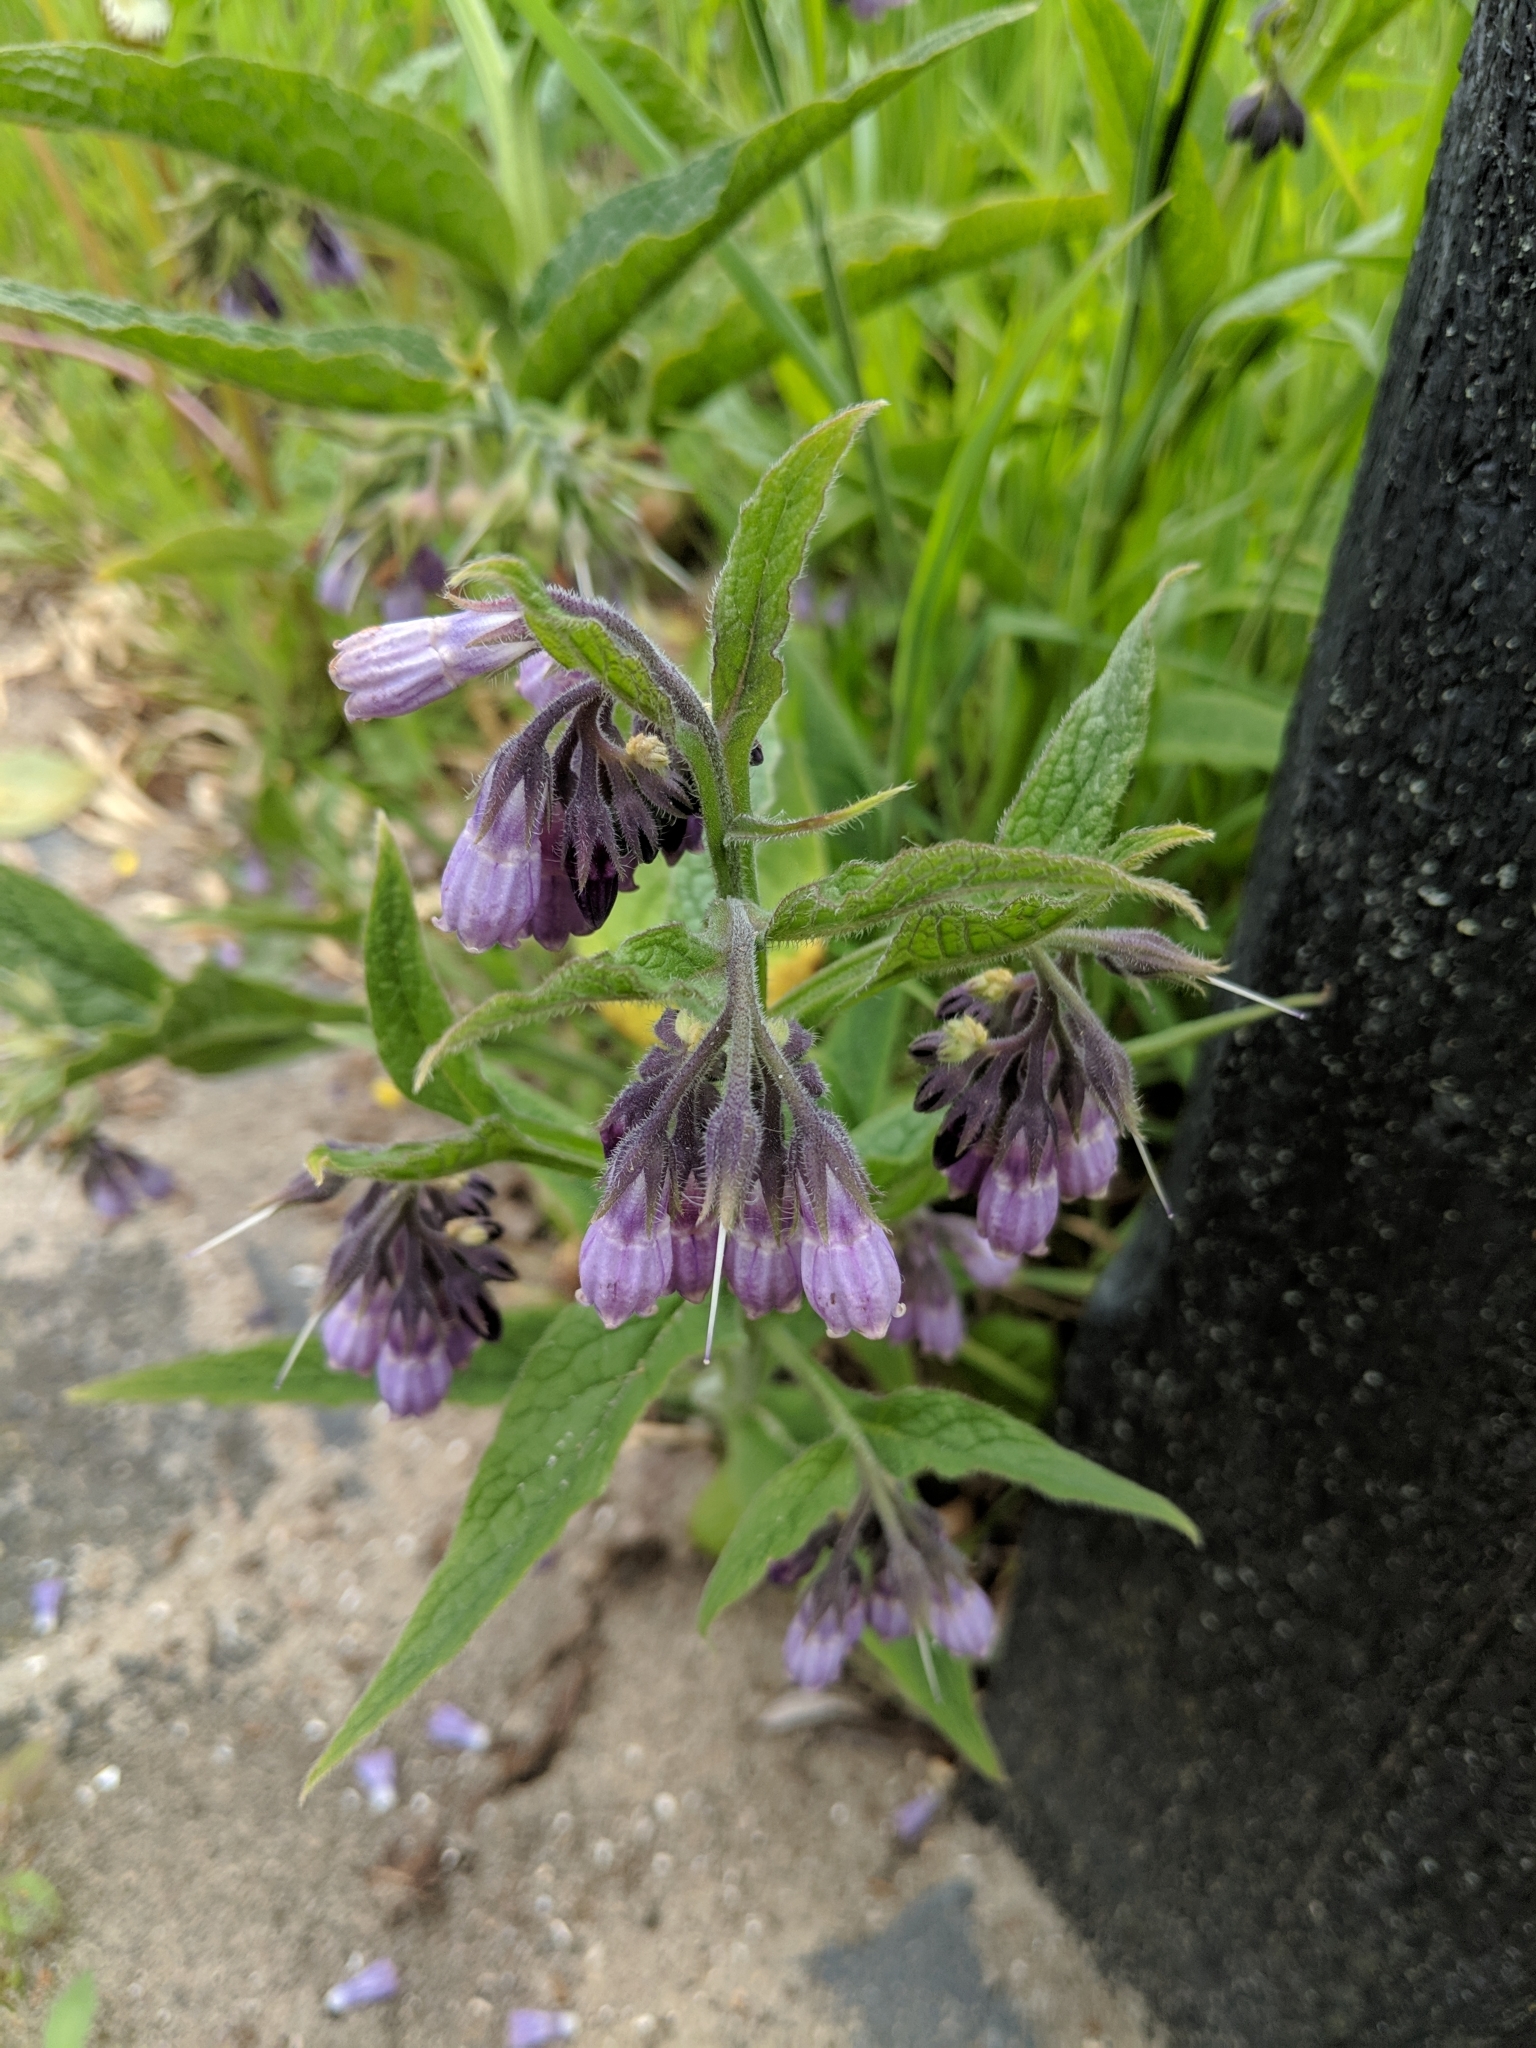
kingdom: Plantae
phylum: Tracheophyta
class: Magnoliopsida
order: Boraginales
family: Boraginaceae
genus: Symphytum
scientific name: Symphytum officinale
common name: Common comfrey
